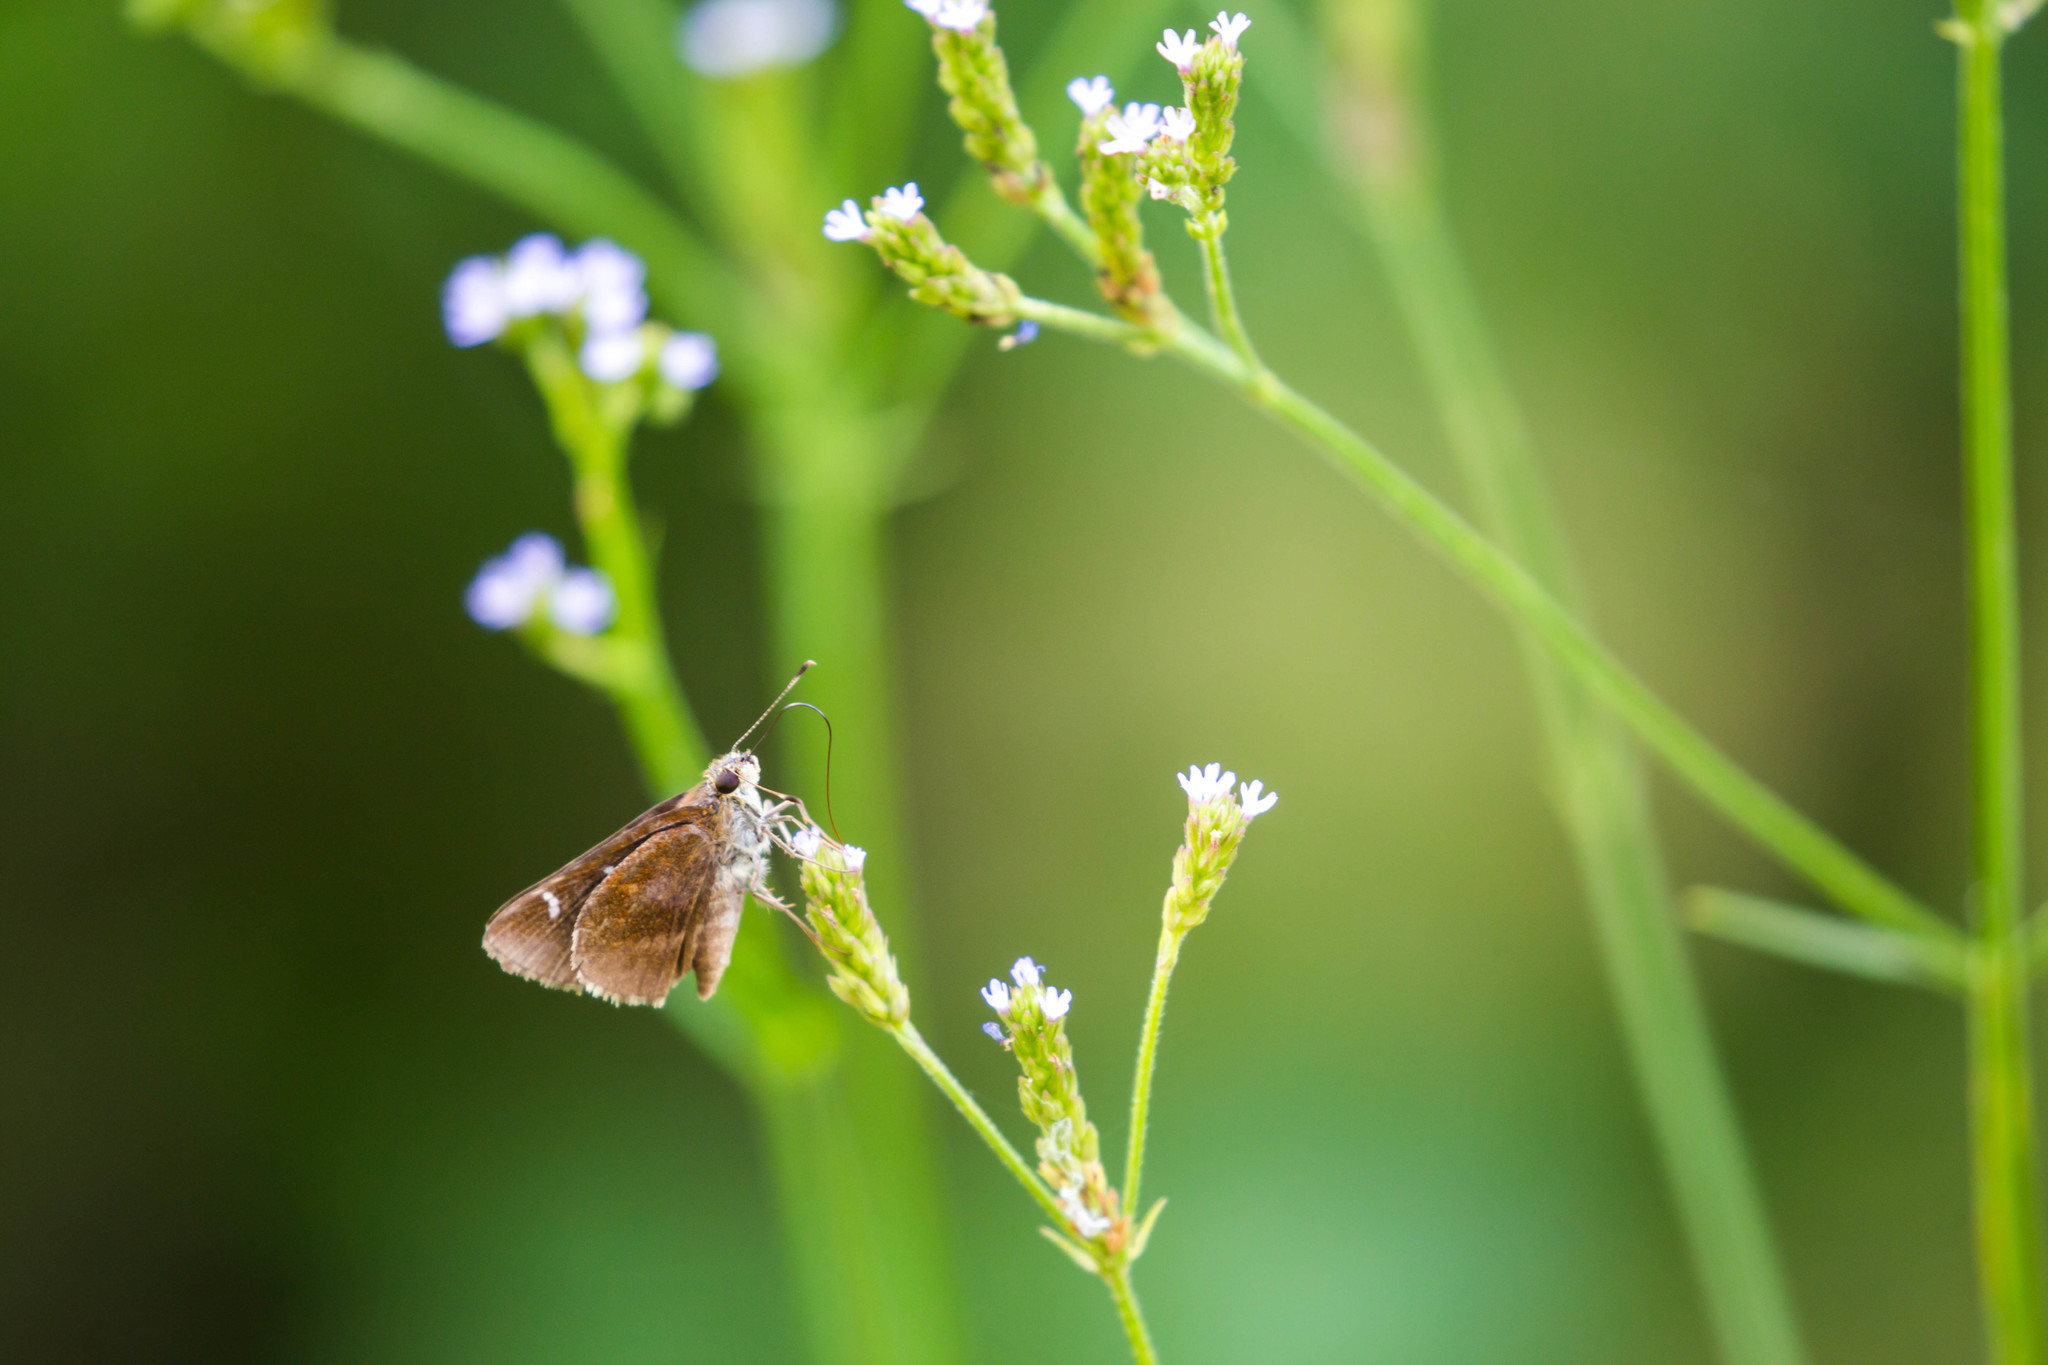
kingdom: Animalia
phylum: Arthropoda
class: Insecta
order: Lepidoptera
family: Hesperiidae
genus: Lerema
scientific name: Lerema accius
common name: Clouded skipper
